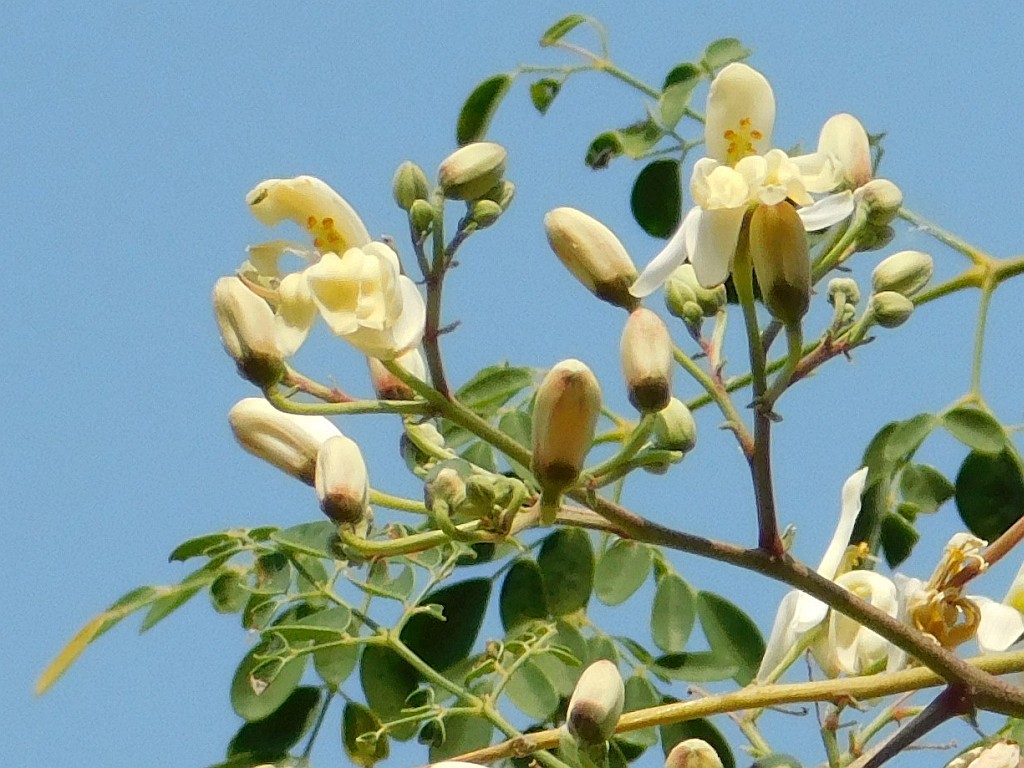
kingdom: Plantae
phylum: Tracheophyta
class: Magnoliopsida
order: Brassicales
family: Moringaceae
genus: Moringa
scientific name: Moringa oleifera
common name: Horseradish-tree
